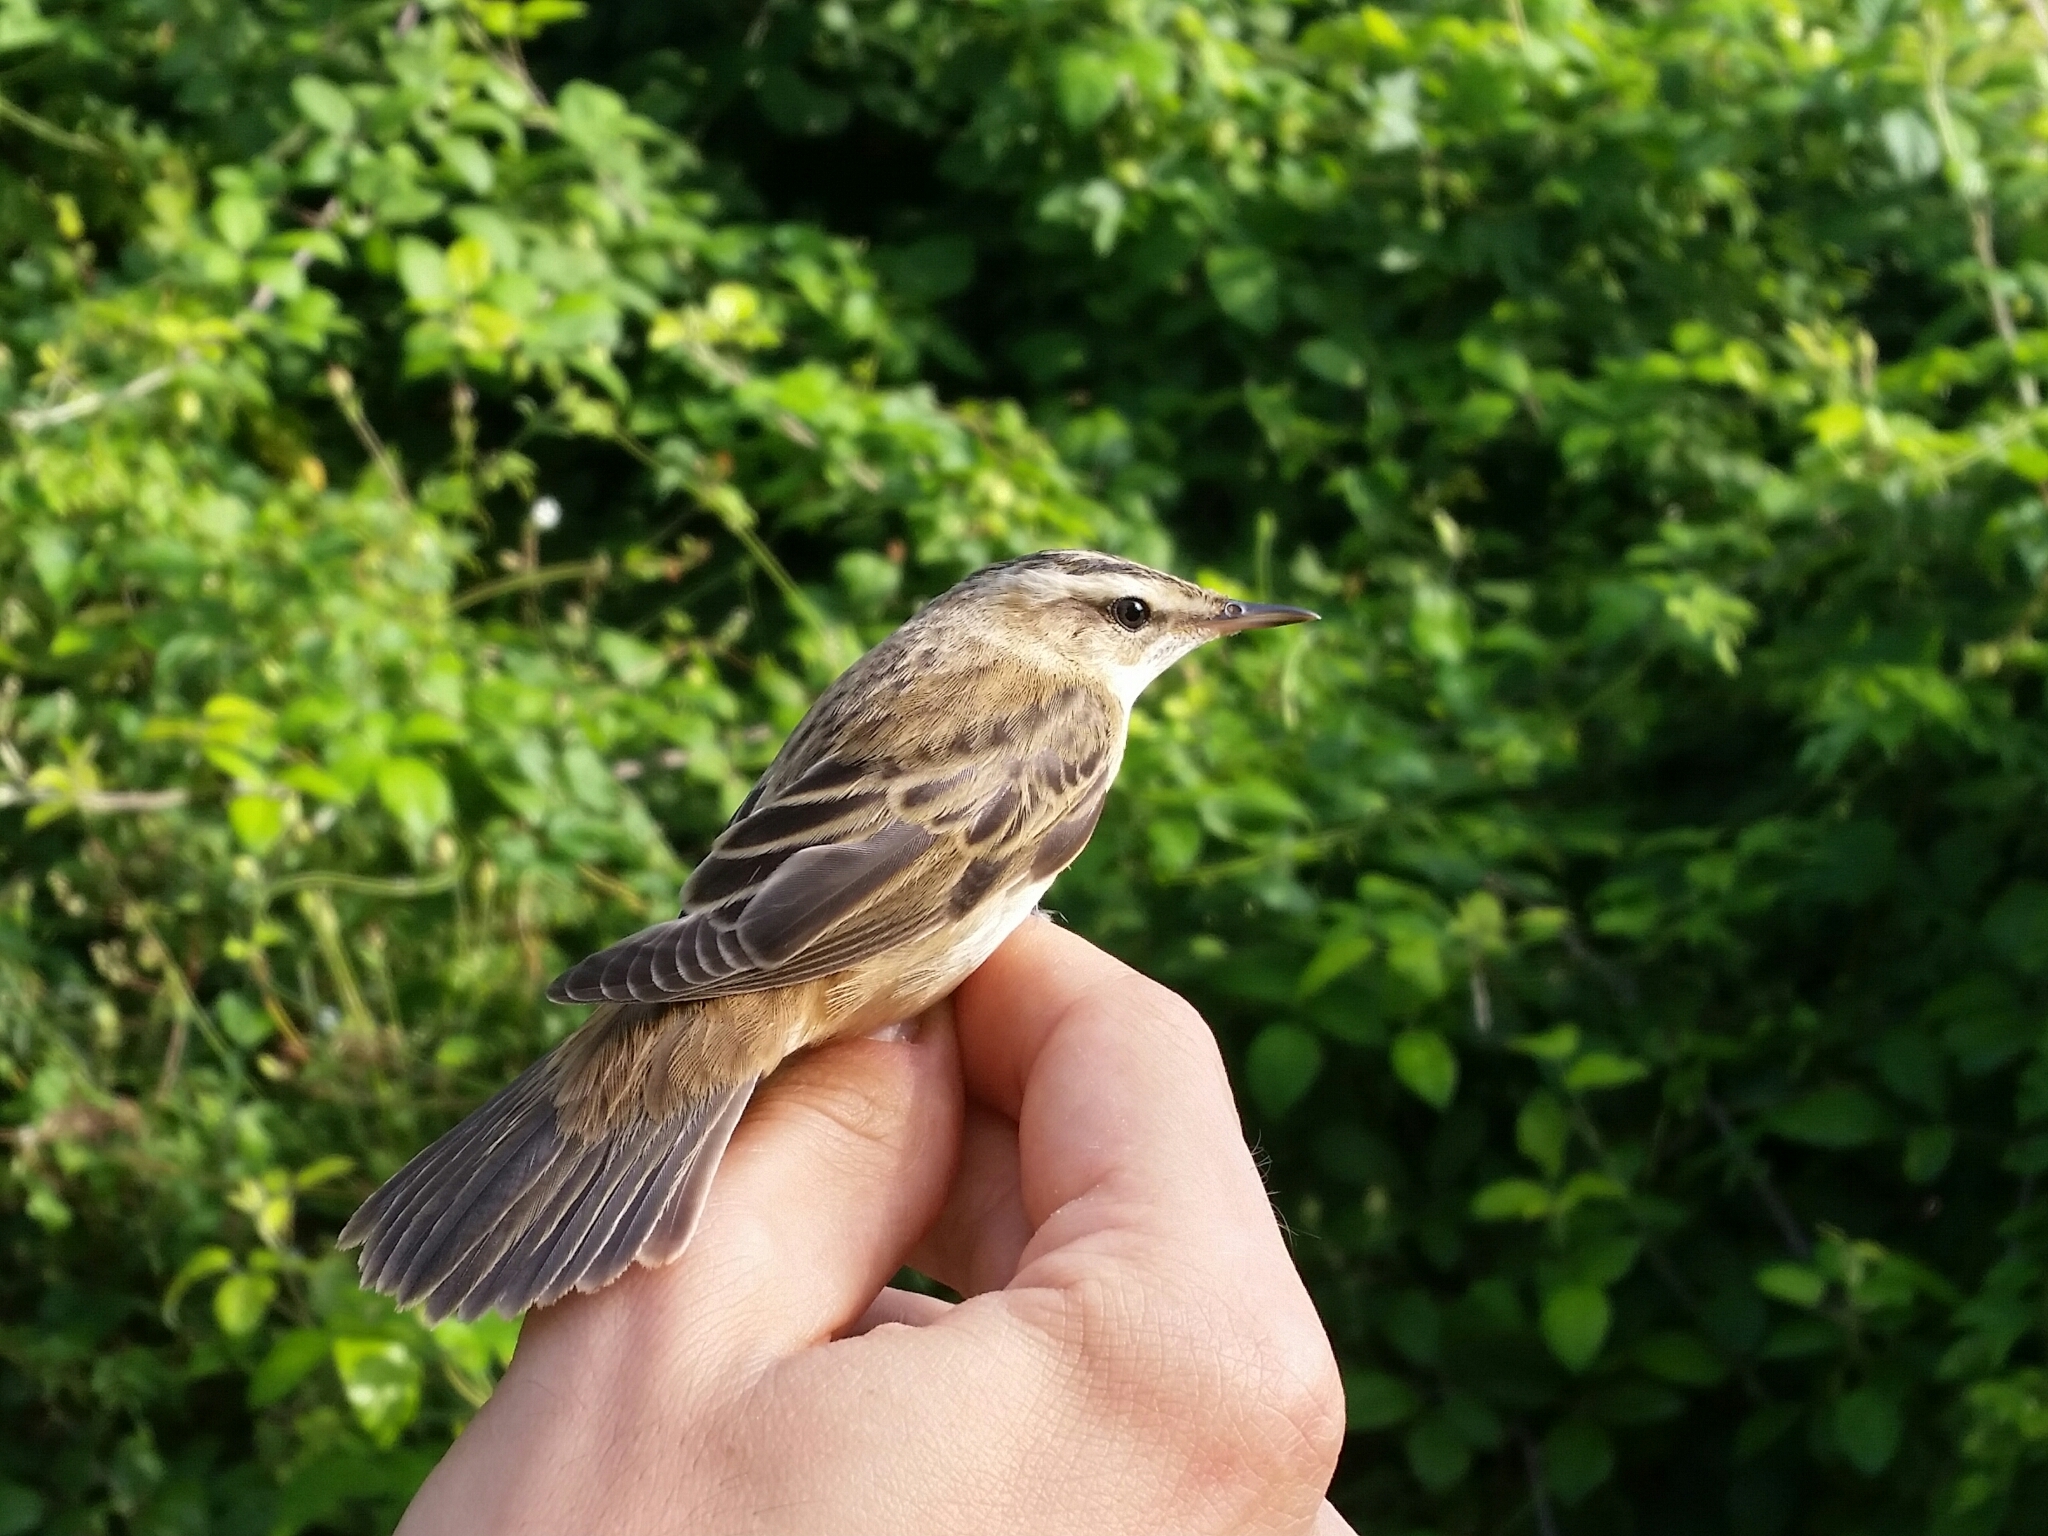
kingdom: Animalia
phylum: Chordata
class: Aves
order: Passeriformes
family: Acrocephalidae
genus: Acrocephalus
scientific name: Acrocephalus schoenobaenus
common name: Sedge warbler
